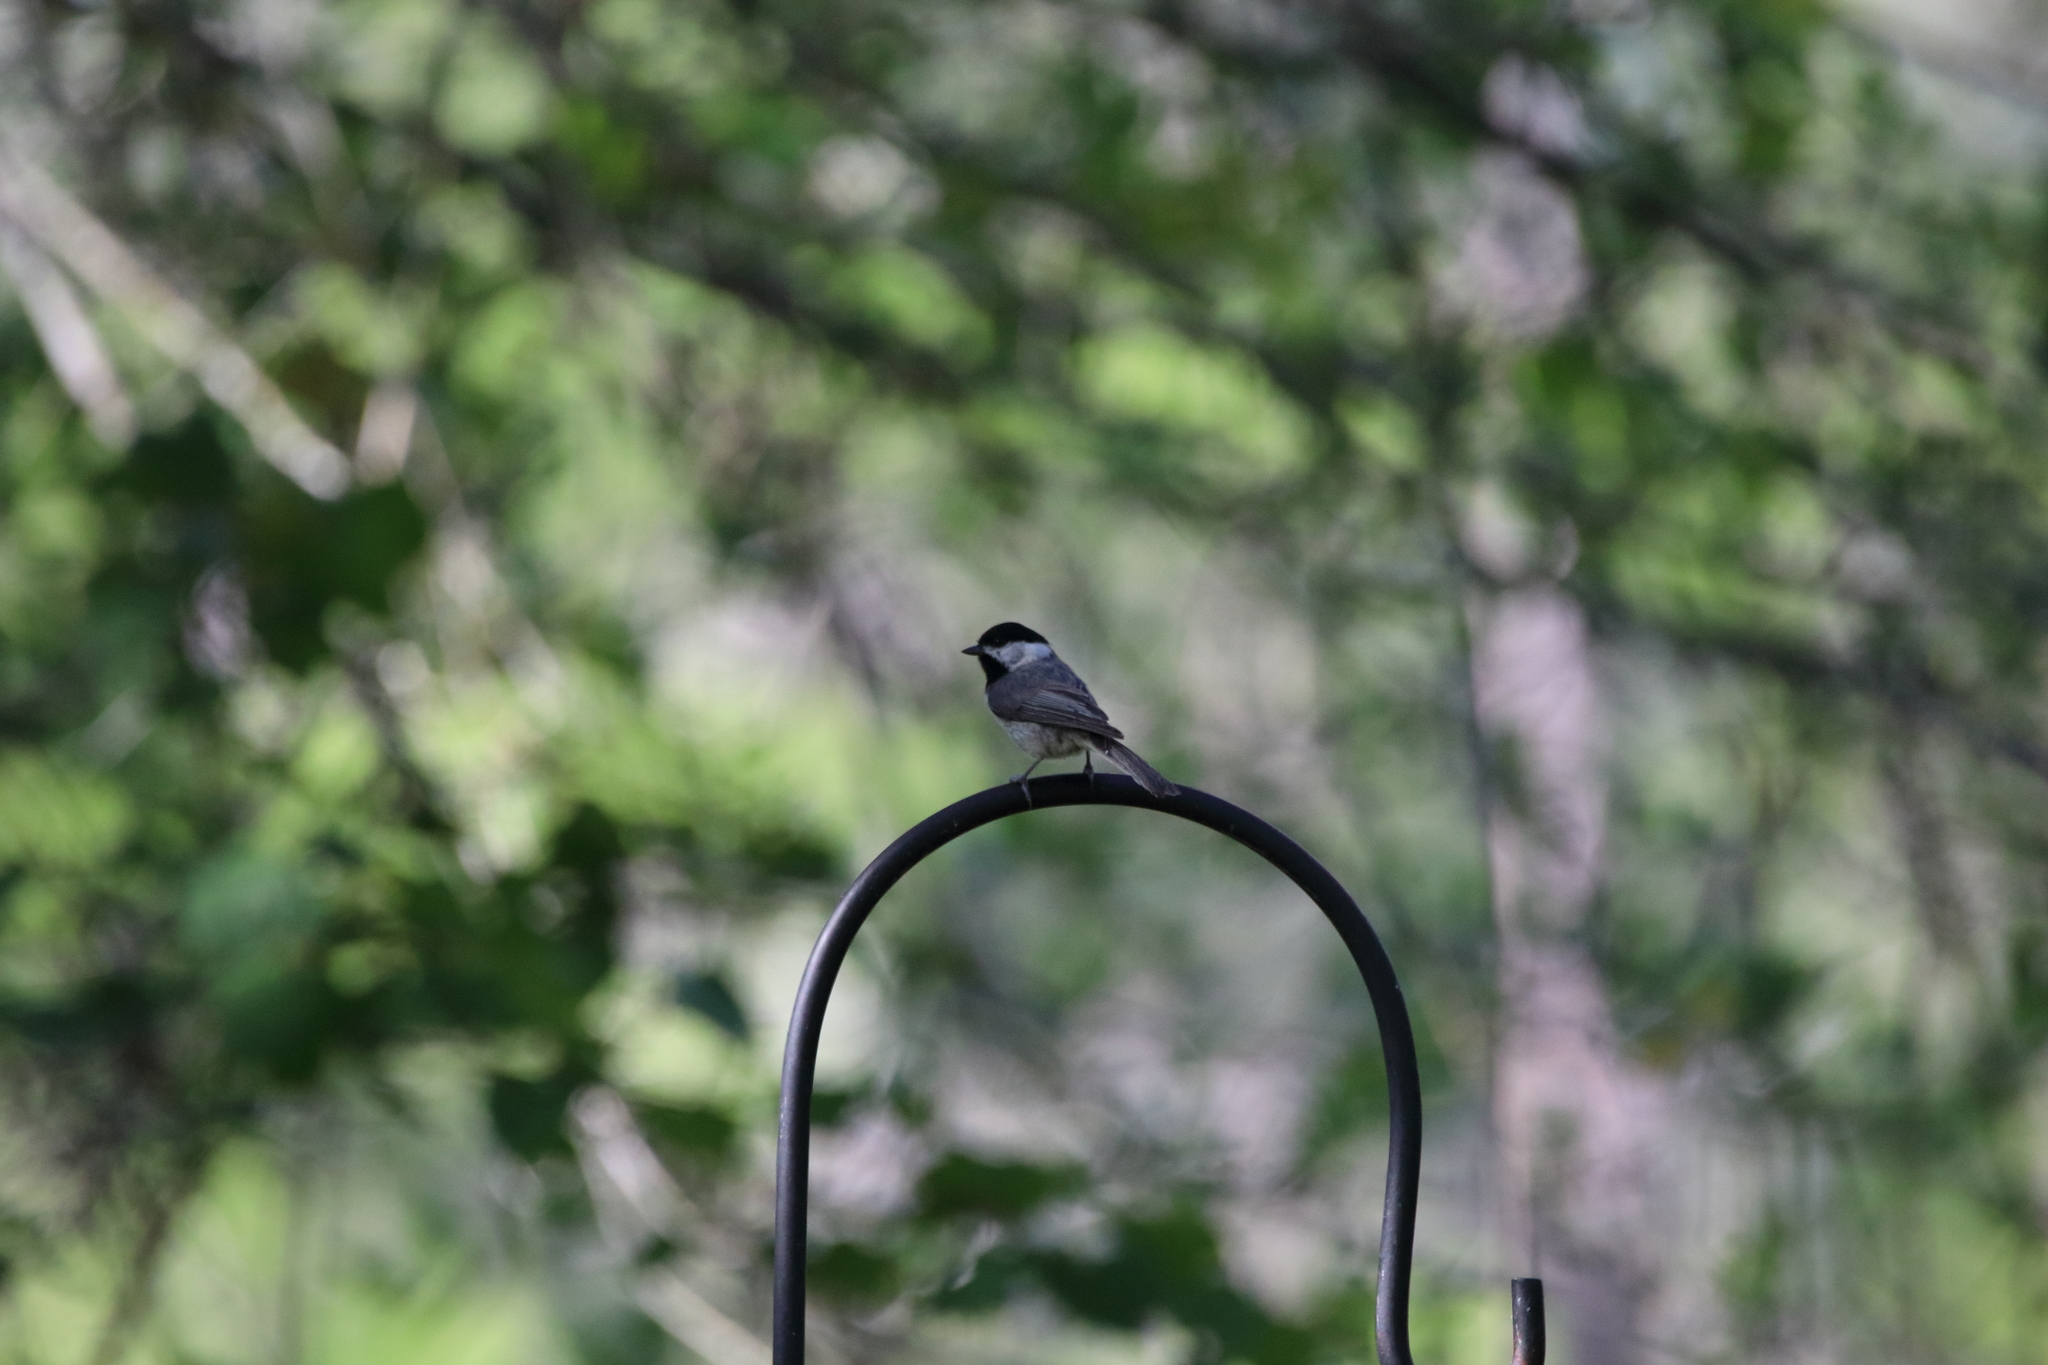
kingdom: Animalia
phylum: Chordata
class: Aves
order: Passeriformes
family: Paridae
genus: Poecile
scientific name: Poecile carolinensis
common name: Carolina chickadee
